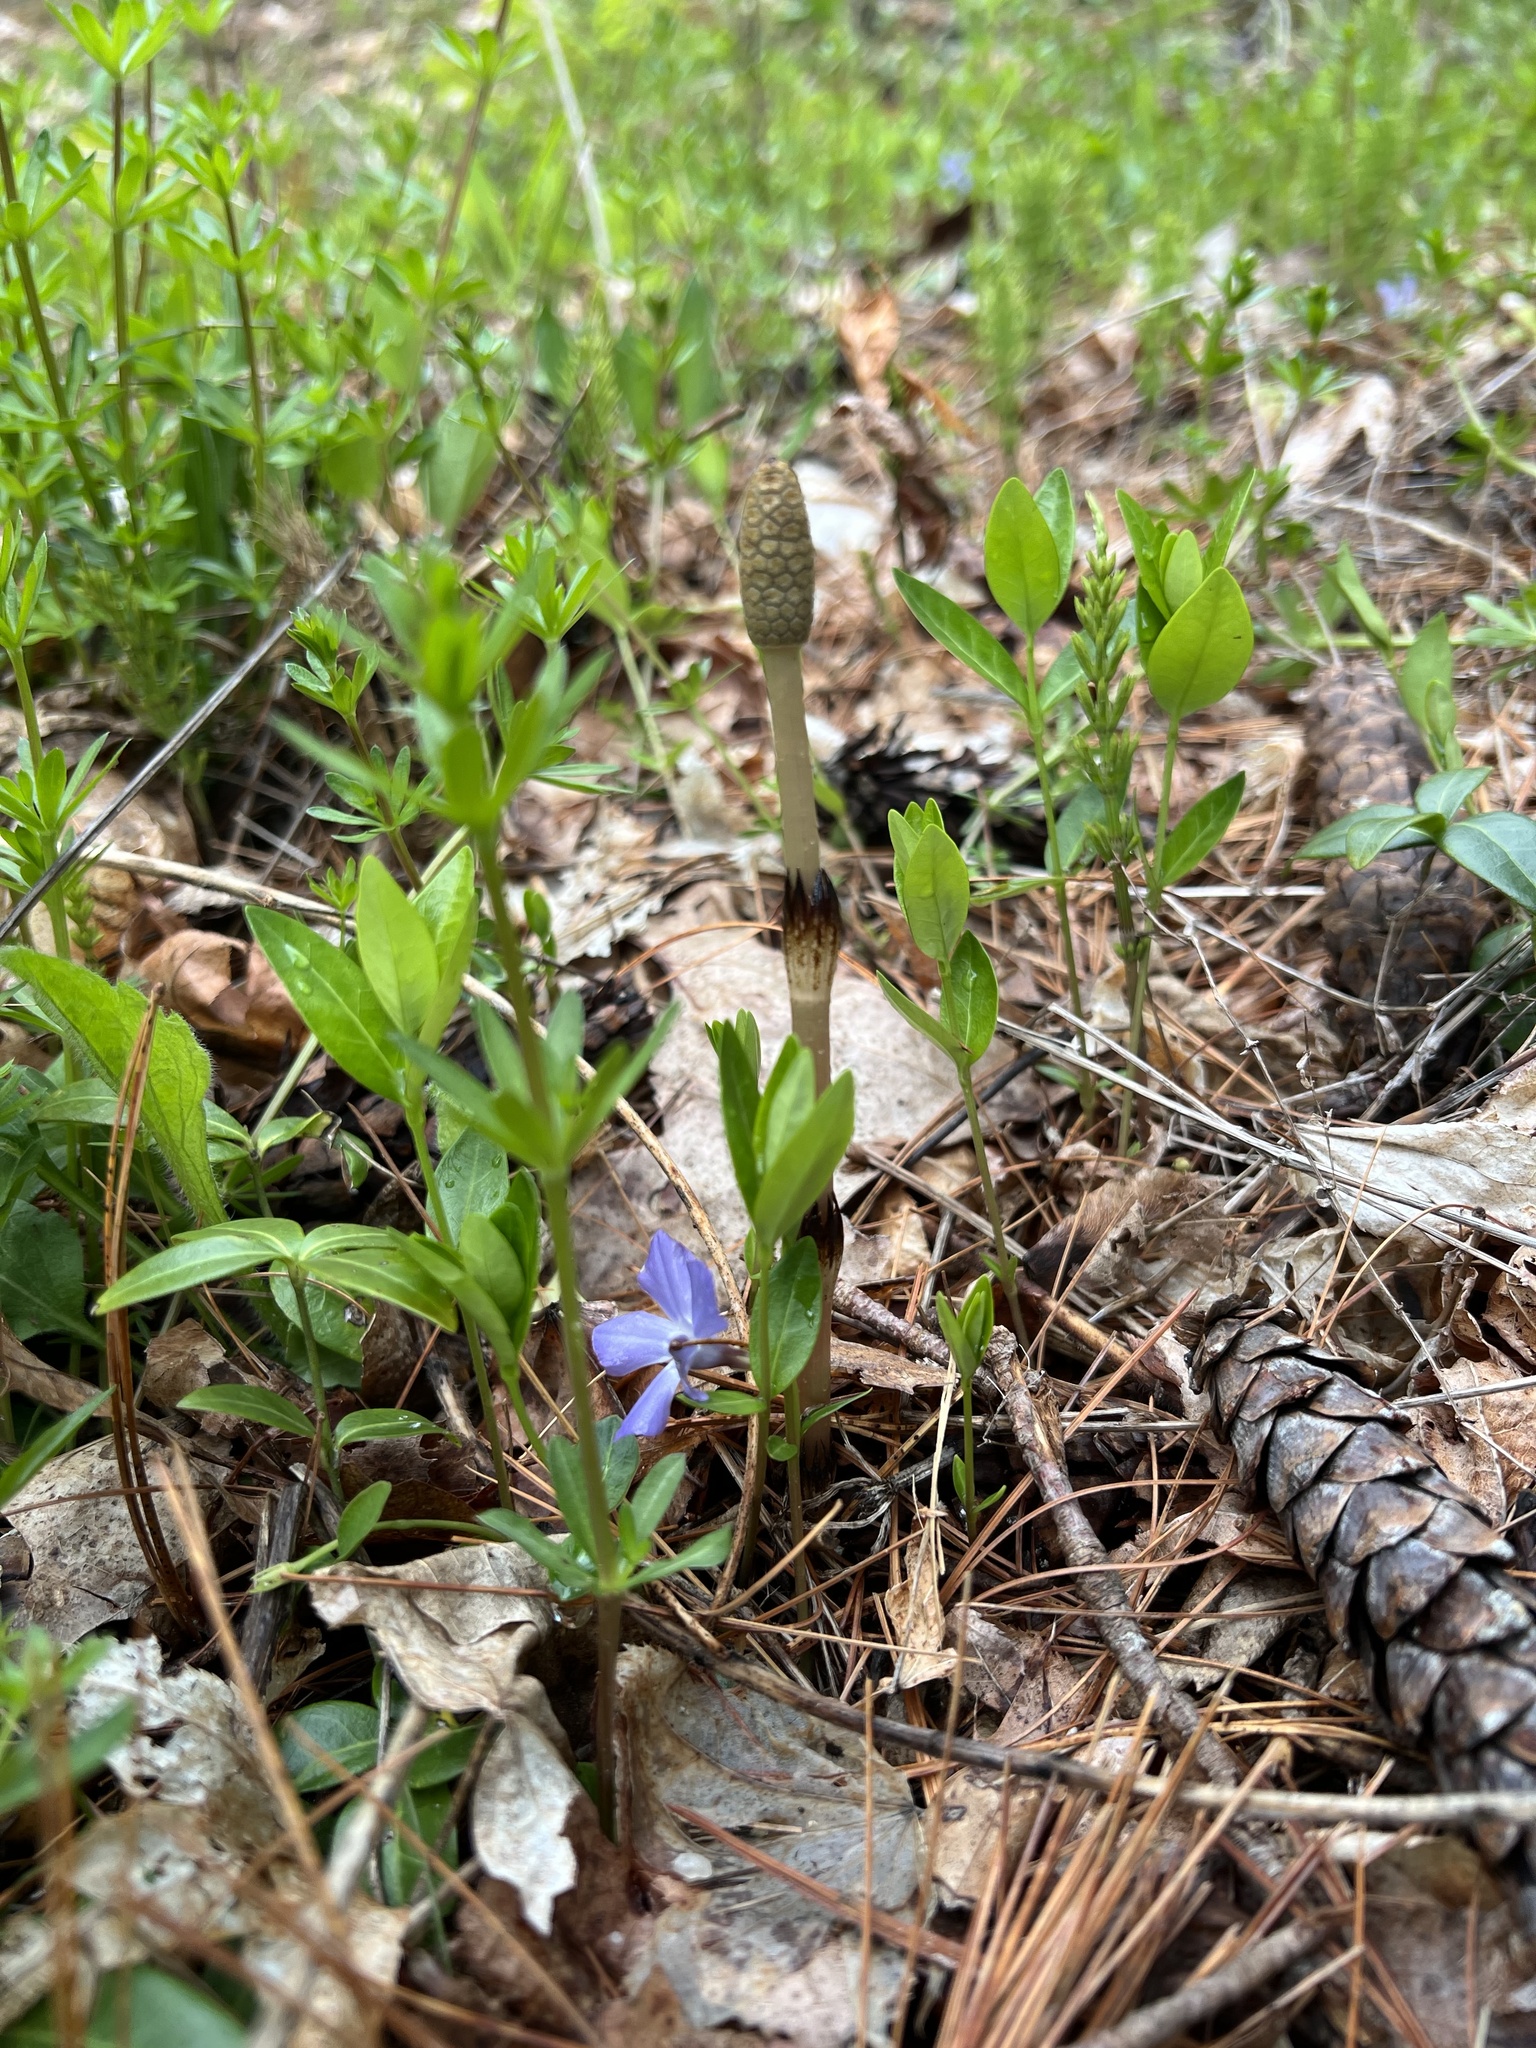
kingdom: Plantae
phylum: Tracheophyta
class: Polypodiopsida
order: Equisetales
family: Equisetaceae
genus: Equisetum
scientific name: Equisetum arvense
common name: Field horsetail
